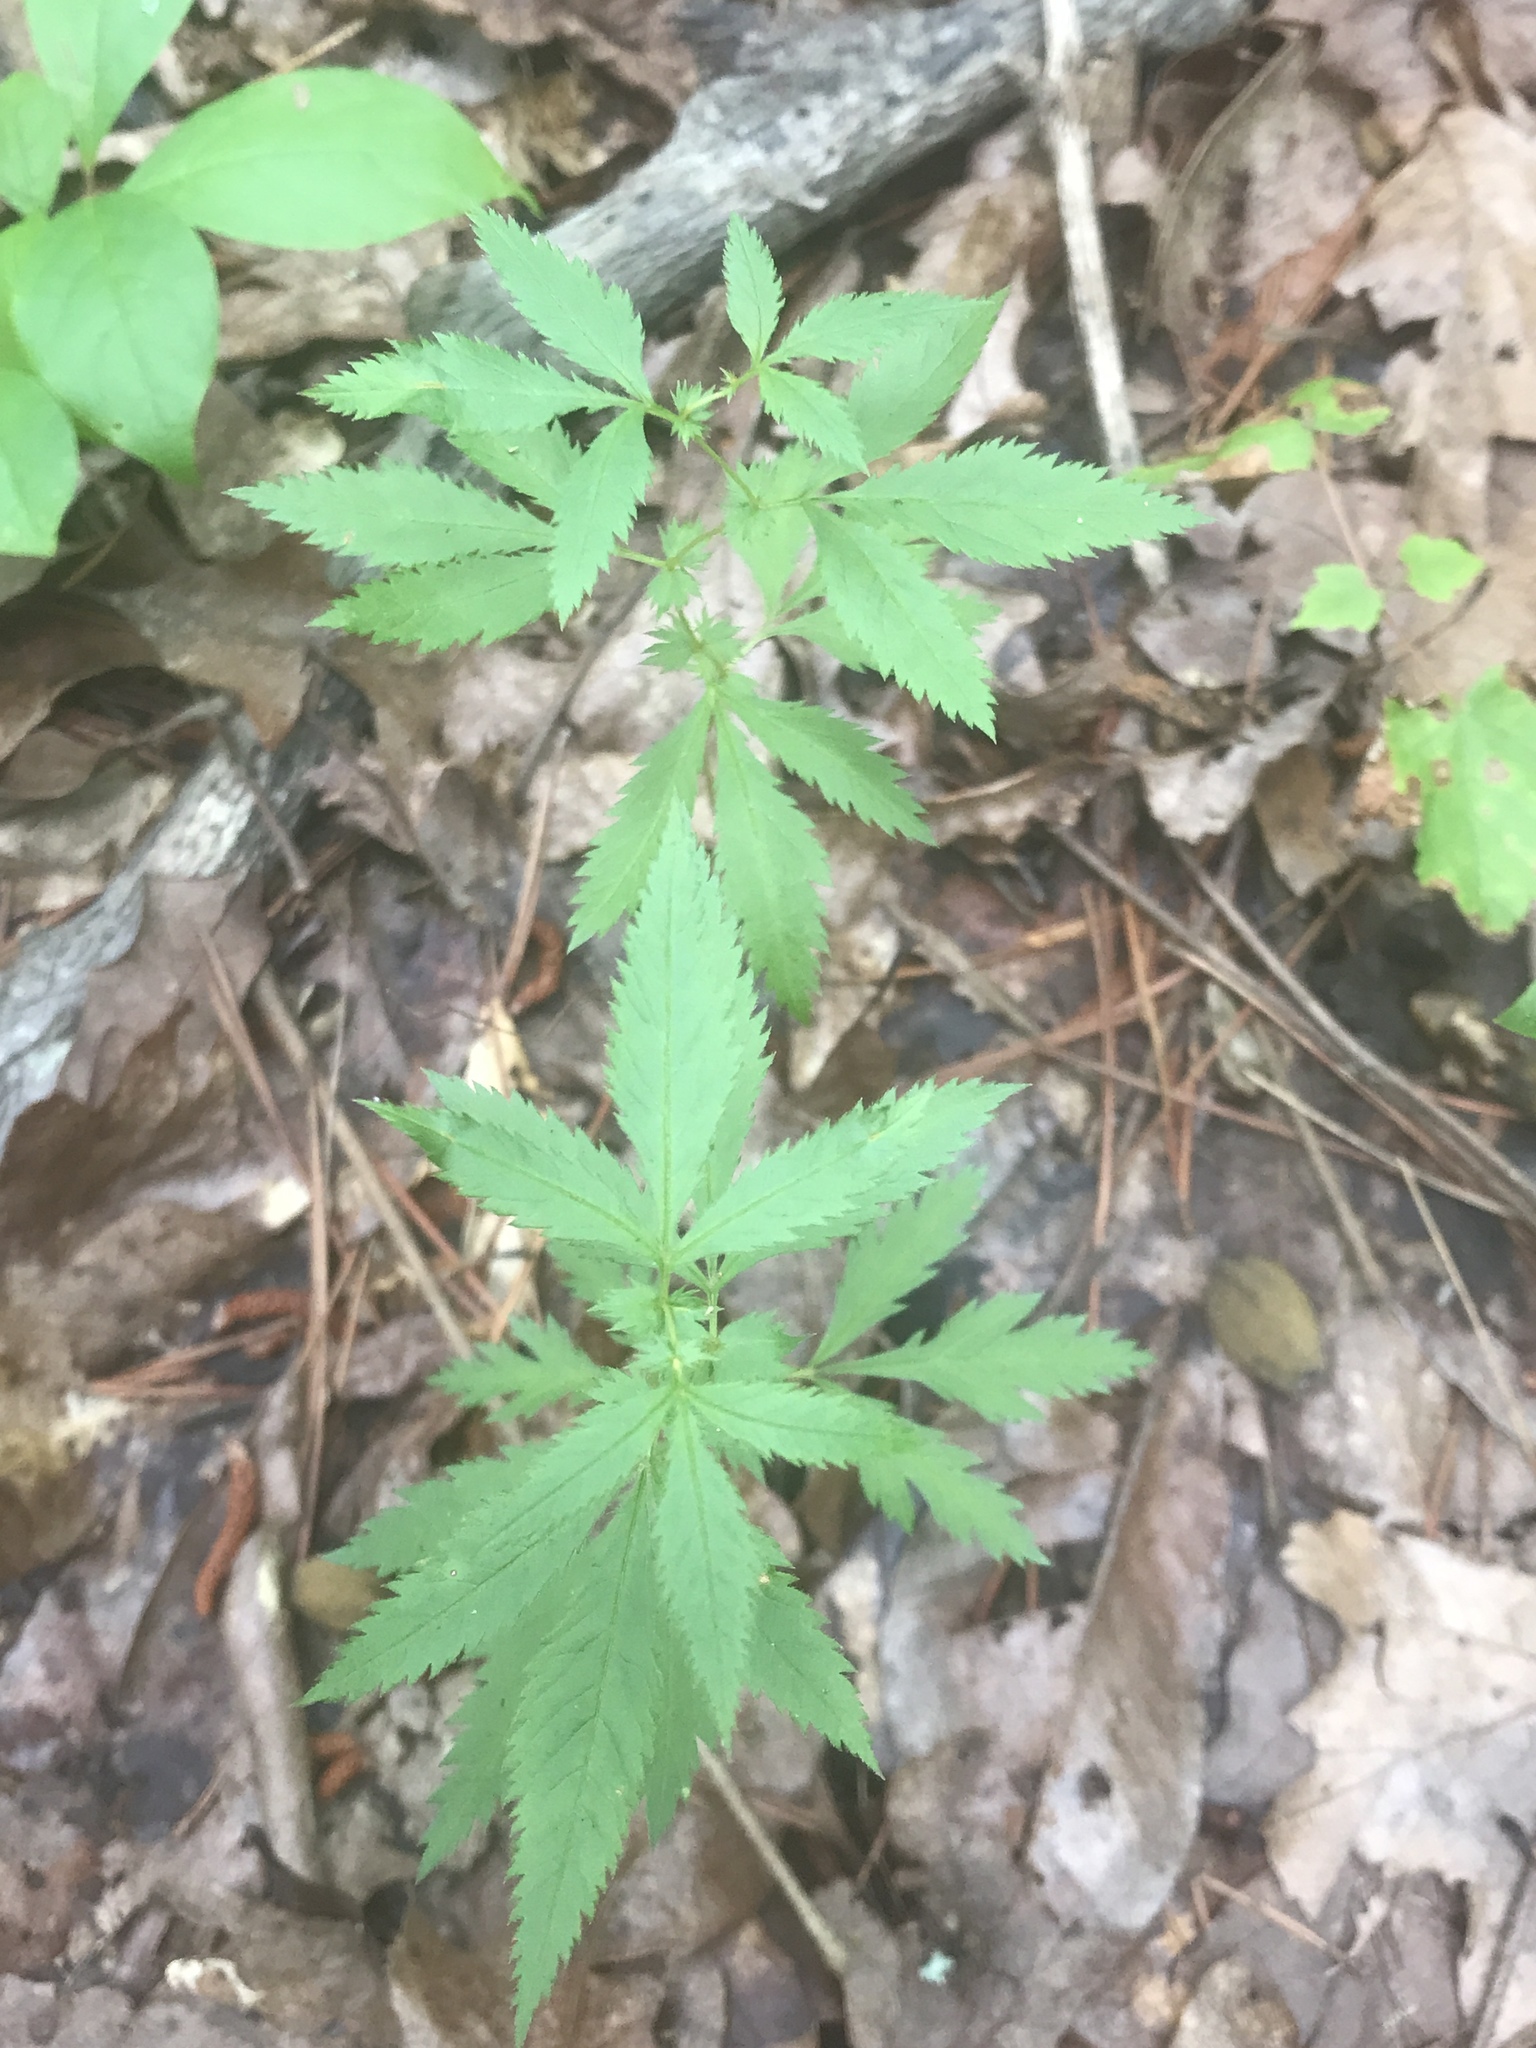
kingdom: Plantae
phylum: Tracheophyta
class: Magnoliopsida
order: Rosales
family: Rosaceae
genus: Gillenia
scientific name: Gillenia stipulata
